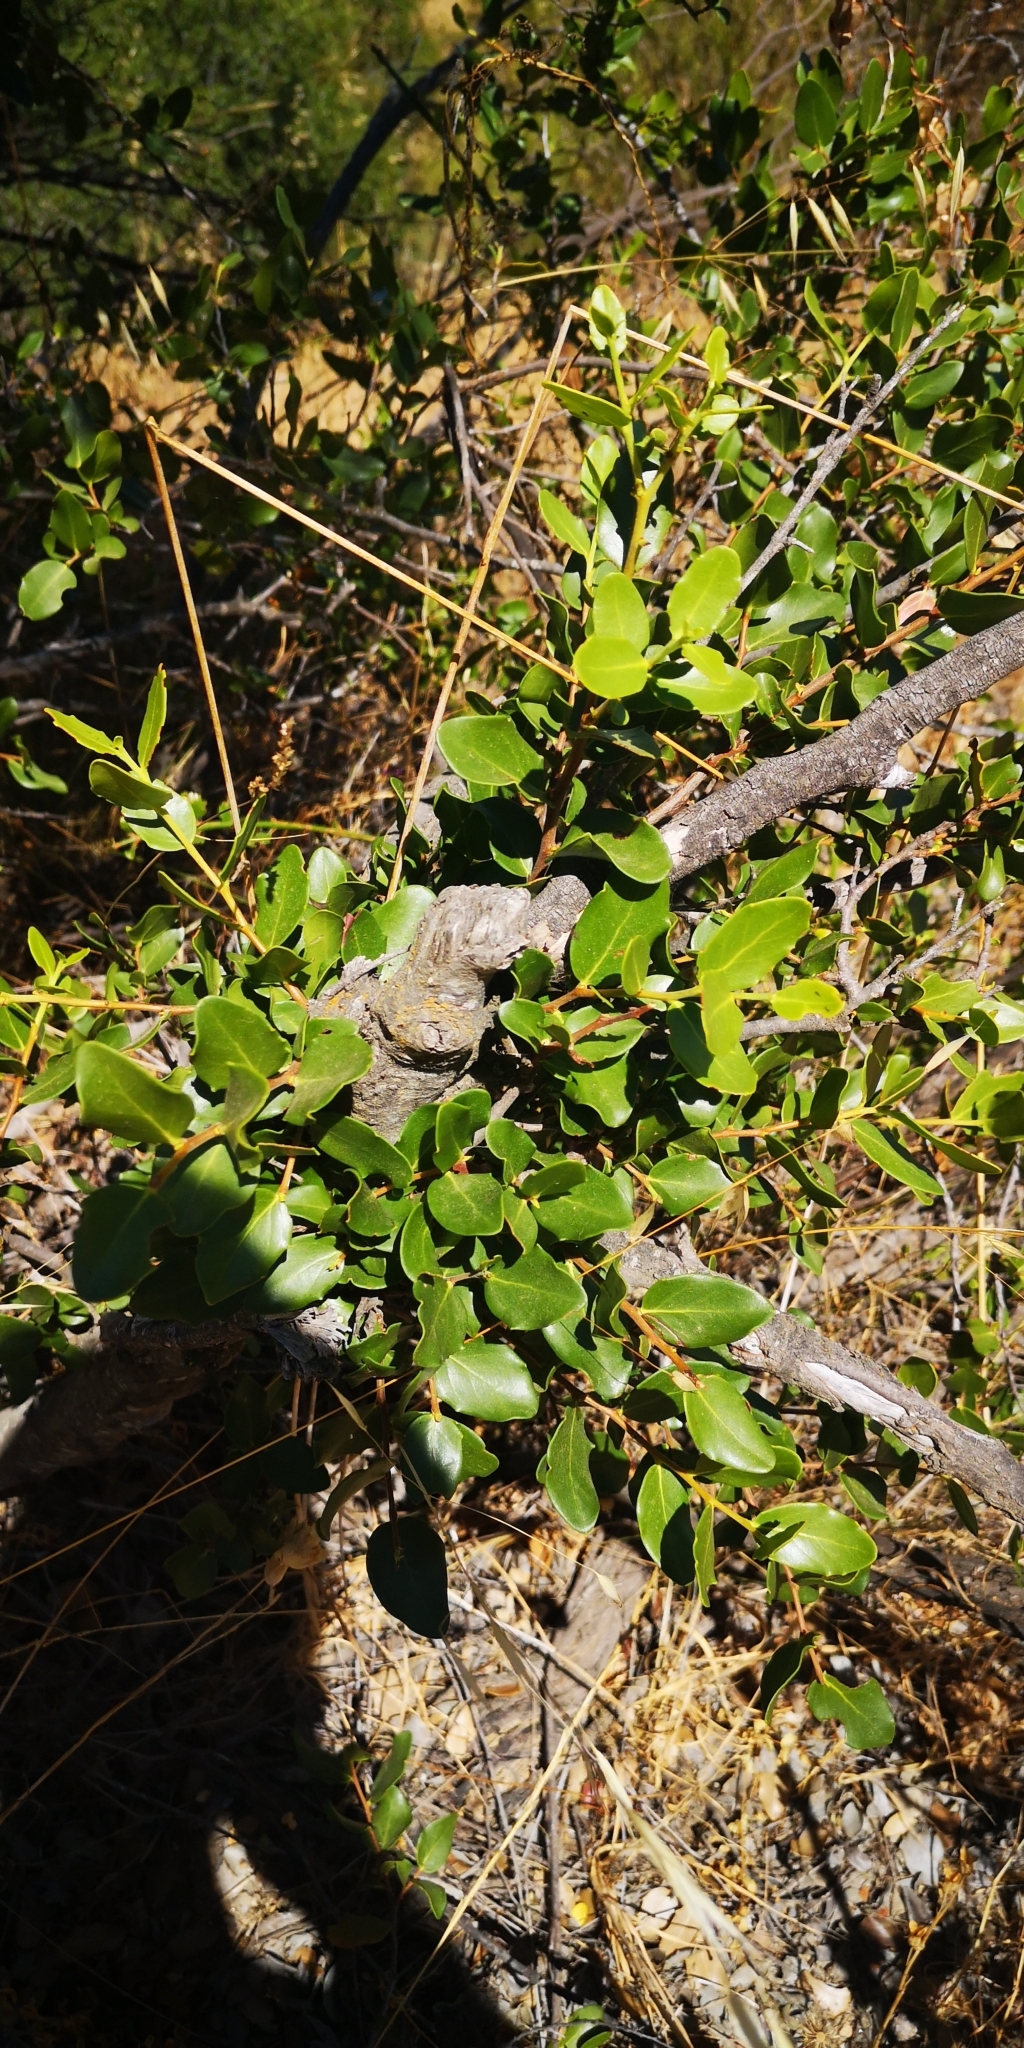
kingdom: Plantae
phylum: Tracheophyta
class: Magnoliopsida
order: Fabales
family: Quillajaceae
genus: Quillaja
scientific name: Quillaja saponaria
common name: Murillo's-bark
